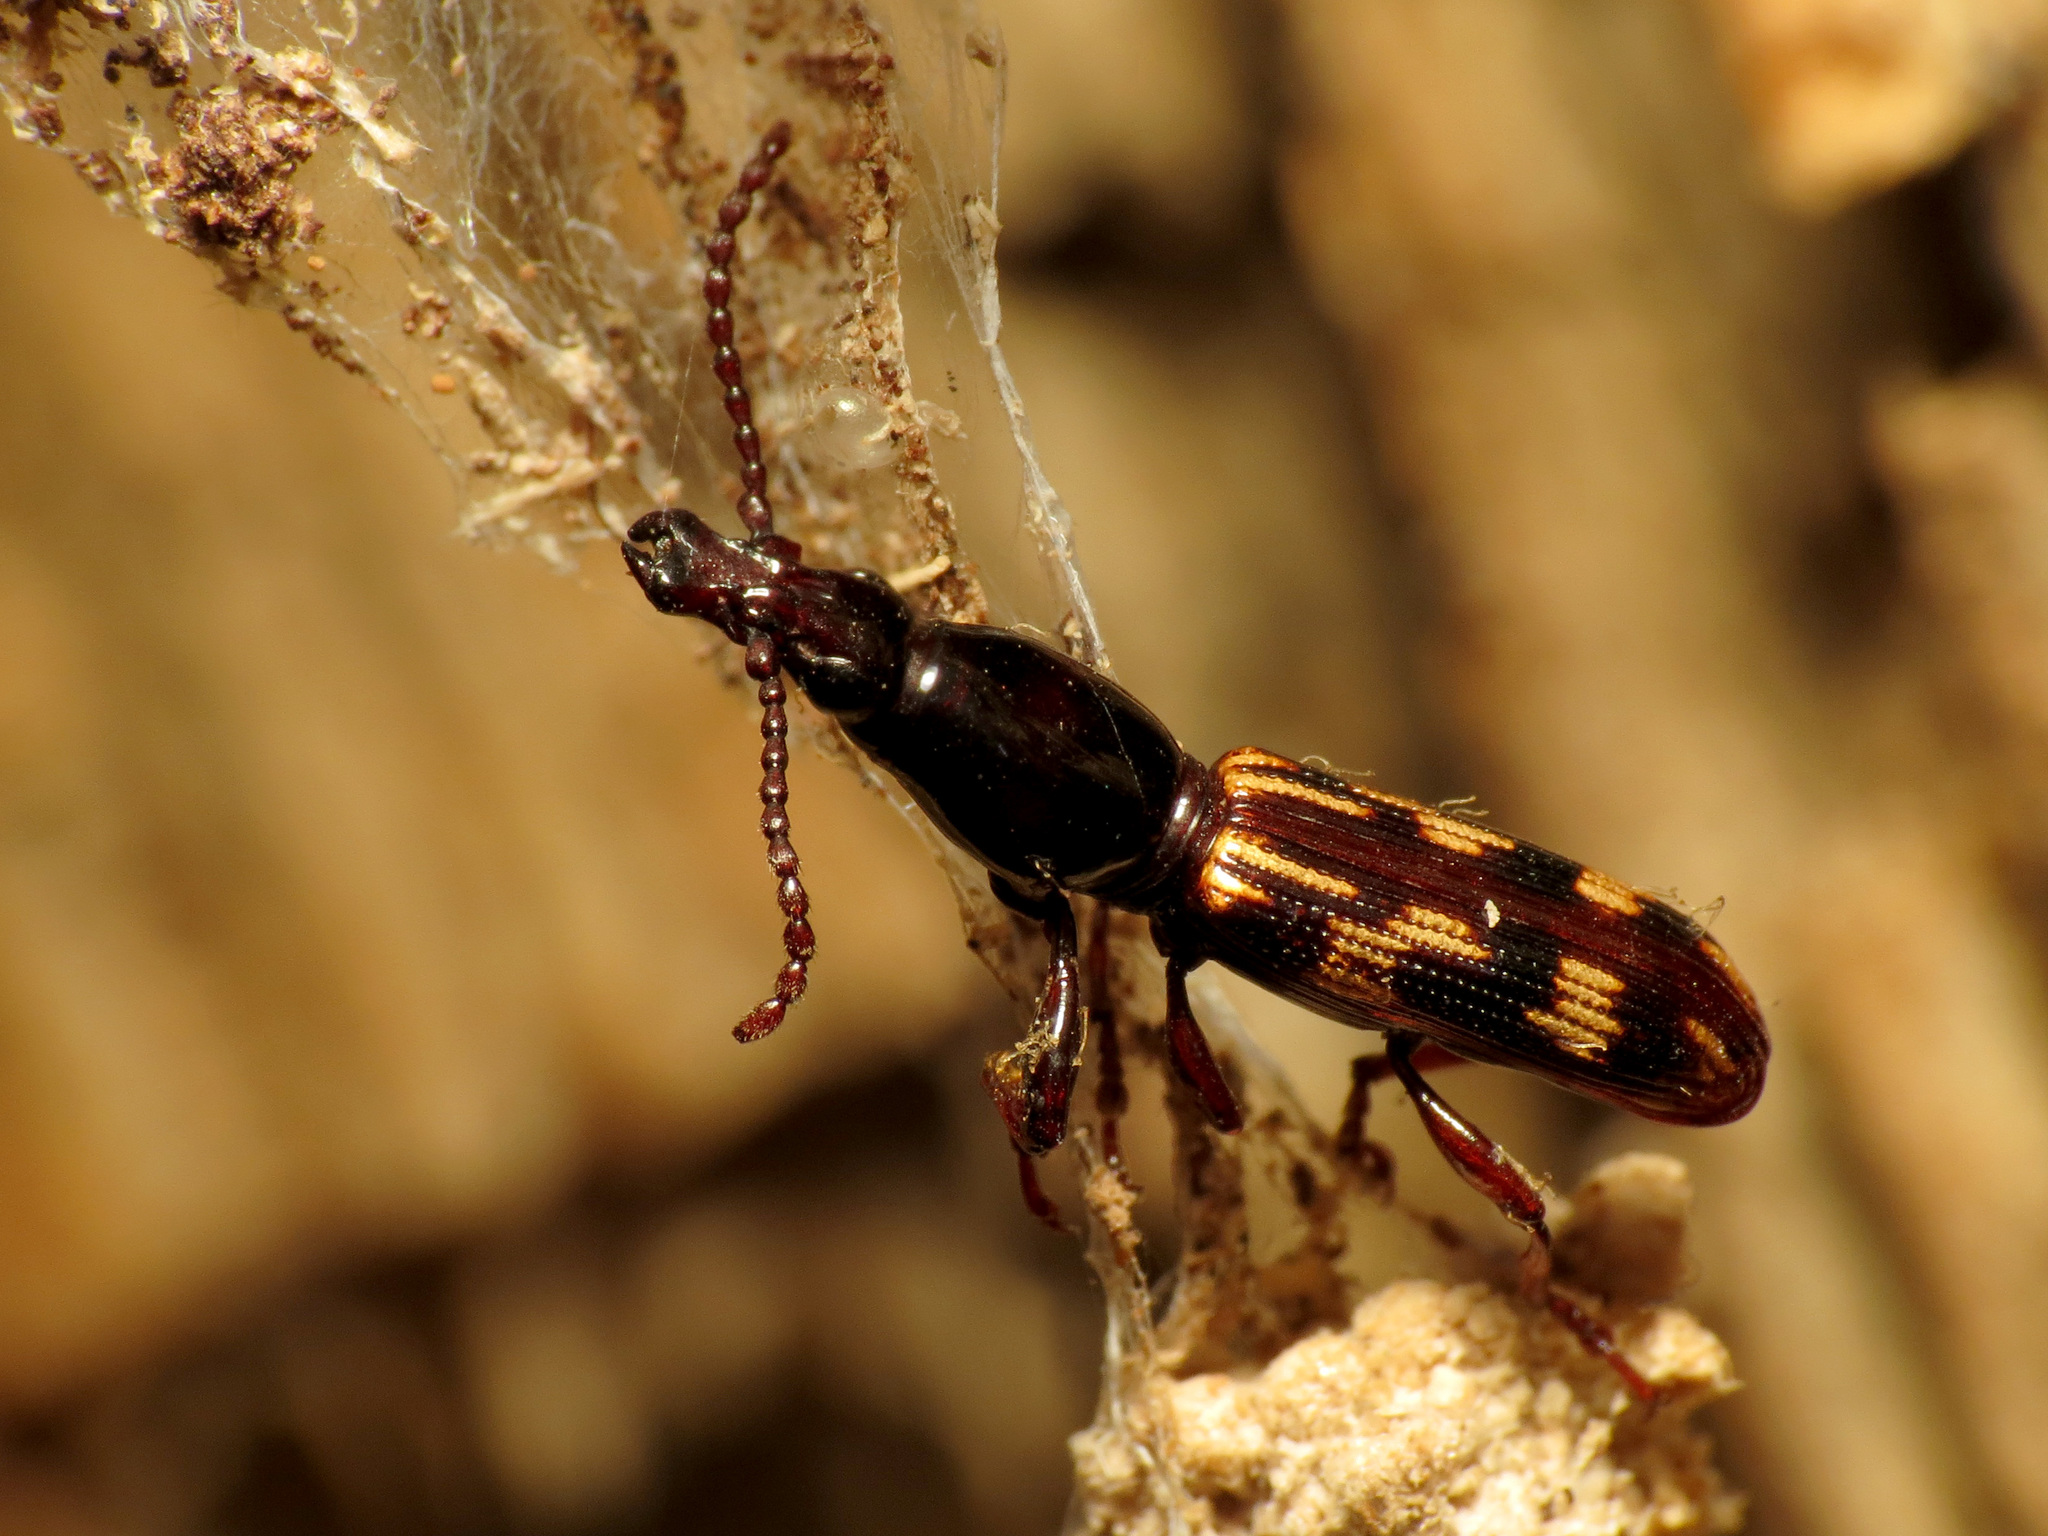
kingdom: Animalia
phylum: Arthropoda
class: Insecta
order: Coleoptera
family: Brentidae
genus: Arrenodes
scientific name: Arrenodes minutus
